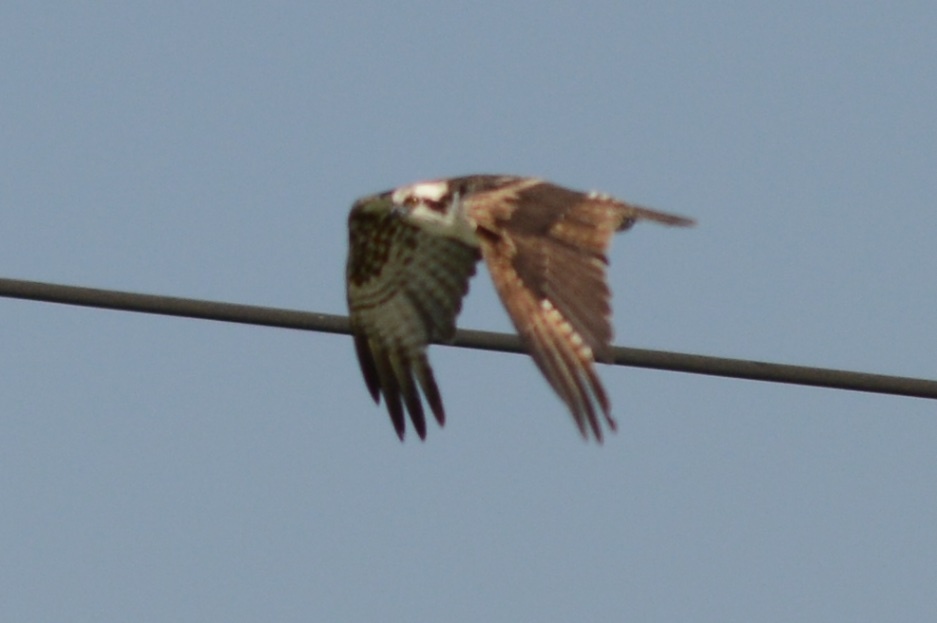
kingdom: Animalia
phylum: Chordata
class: Aves
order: Accipitriformes
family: Pandionidae
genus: Pandion
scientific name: Pandion haliaetus
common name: Osprey
